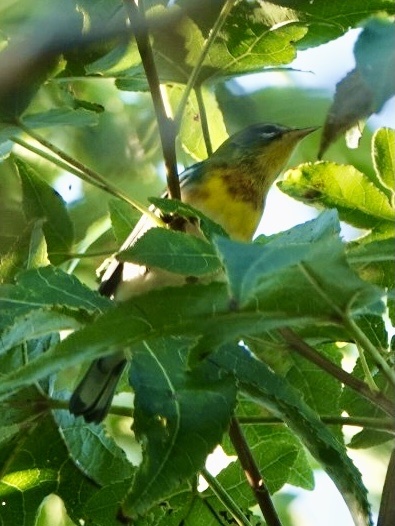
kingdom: Animalia
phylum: Chordata
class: Aves
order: Passeriformes
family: Parulidae
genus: Setophaga
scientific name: Setophaga americana
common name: Northern parula
